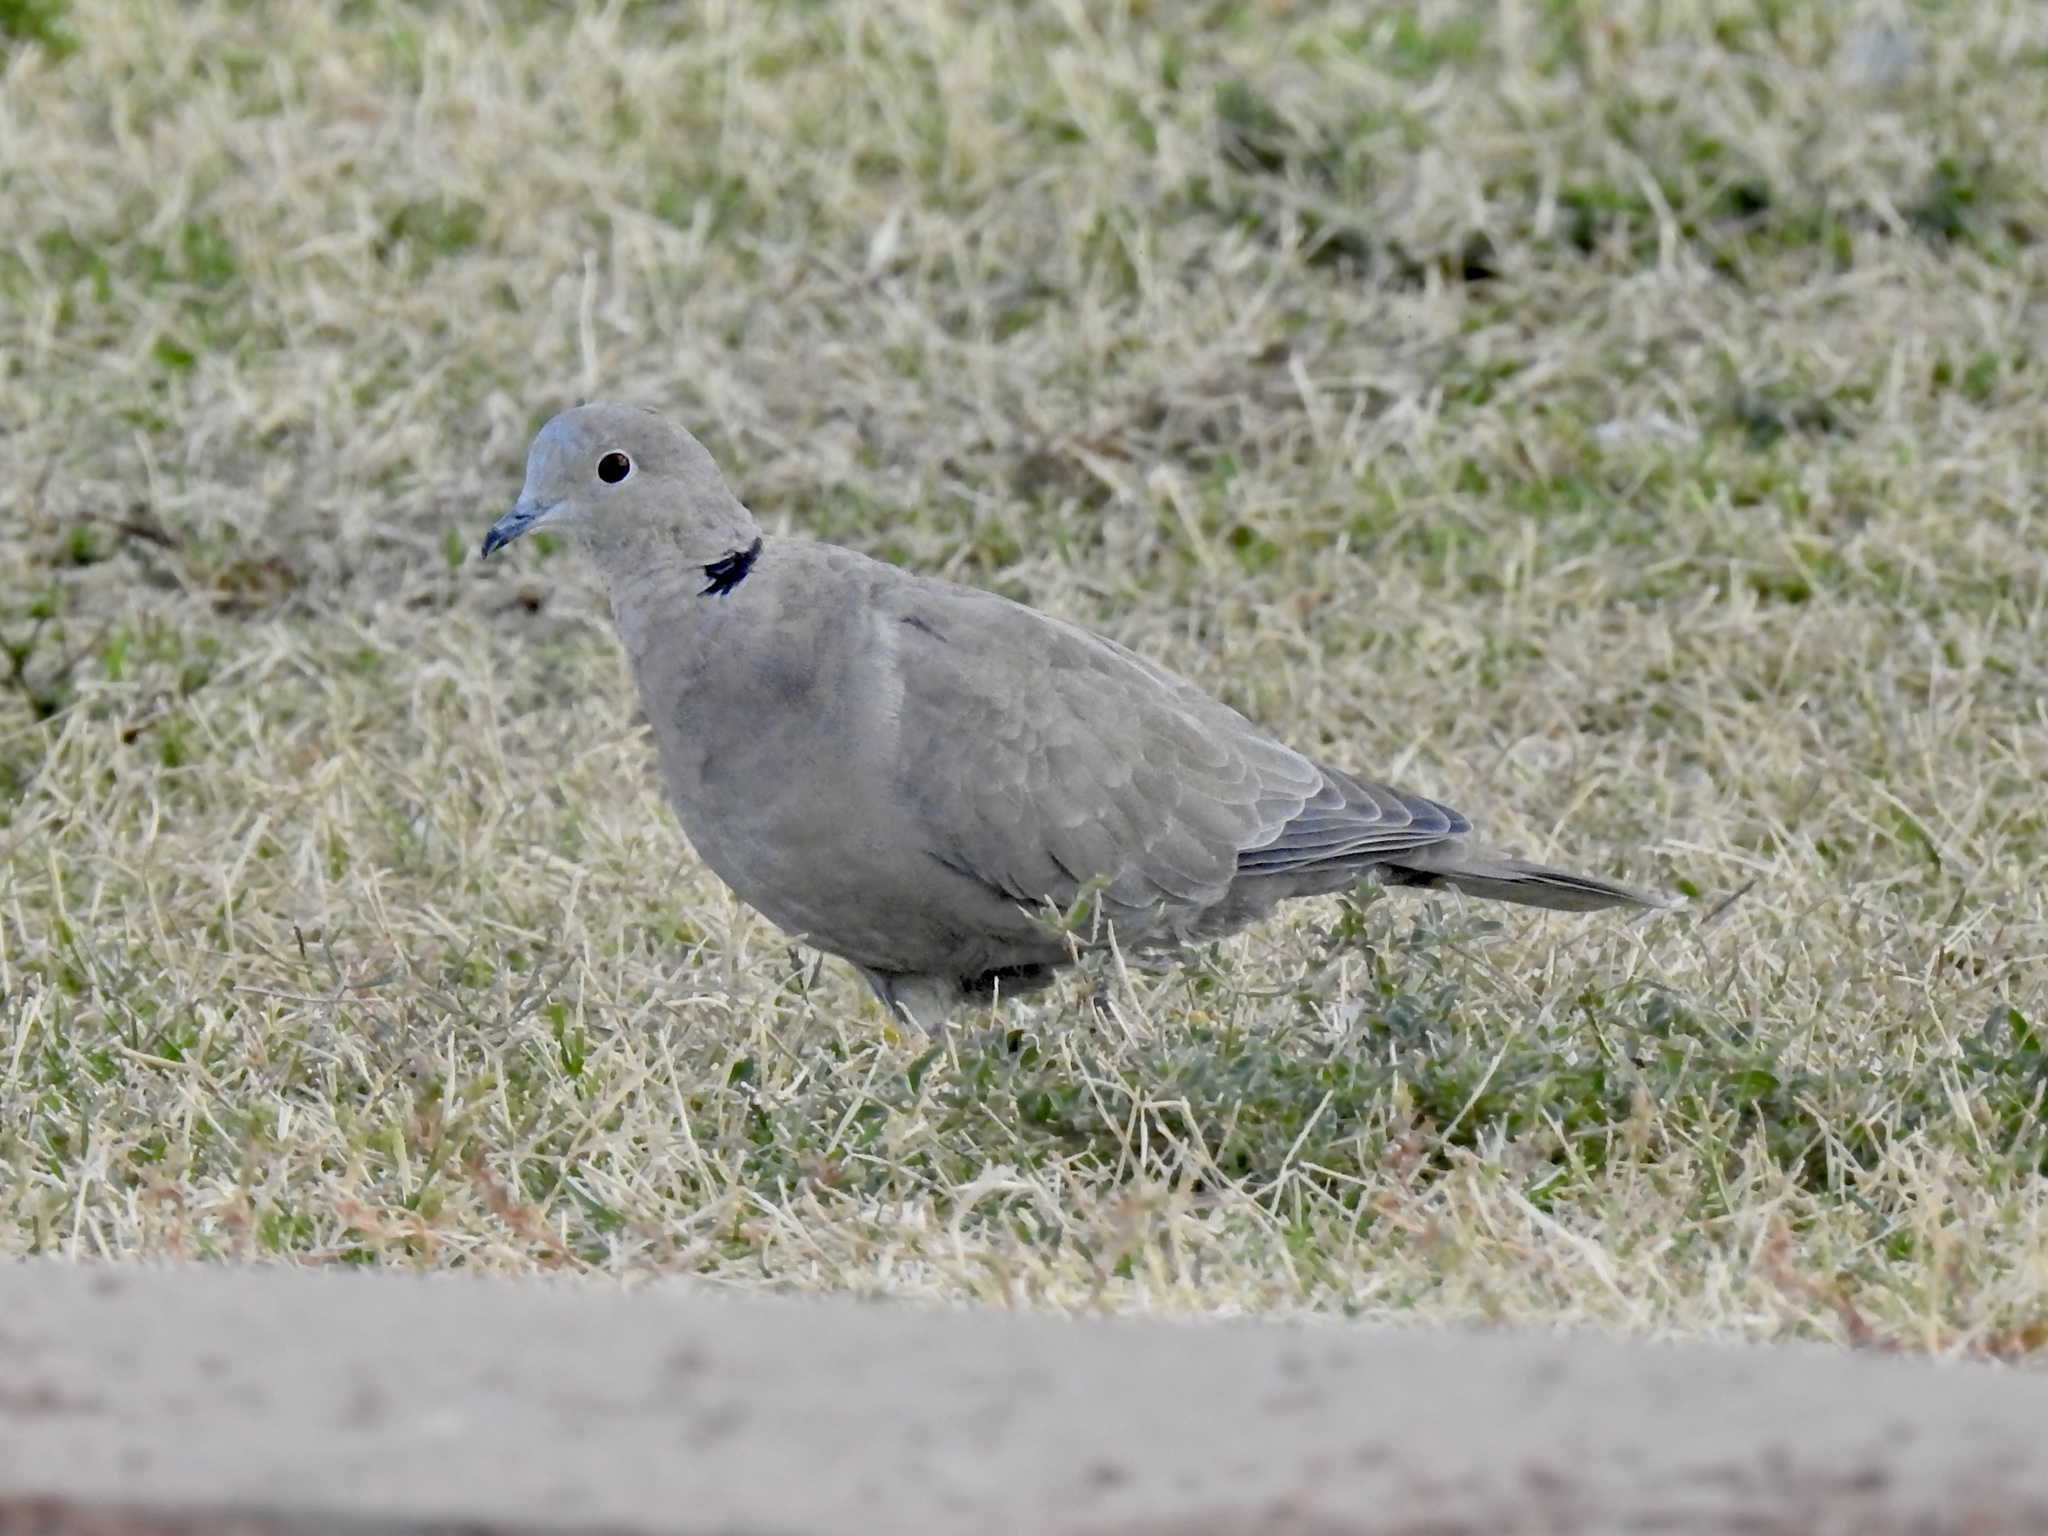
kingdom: Animalia
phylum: Chordata
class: Aves
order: Columbiformes
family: Columbidae
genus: Streptopelia
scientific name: Streptopelia decaocto
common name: Eurasian collared dove
